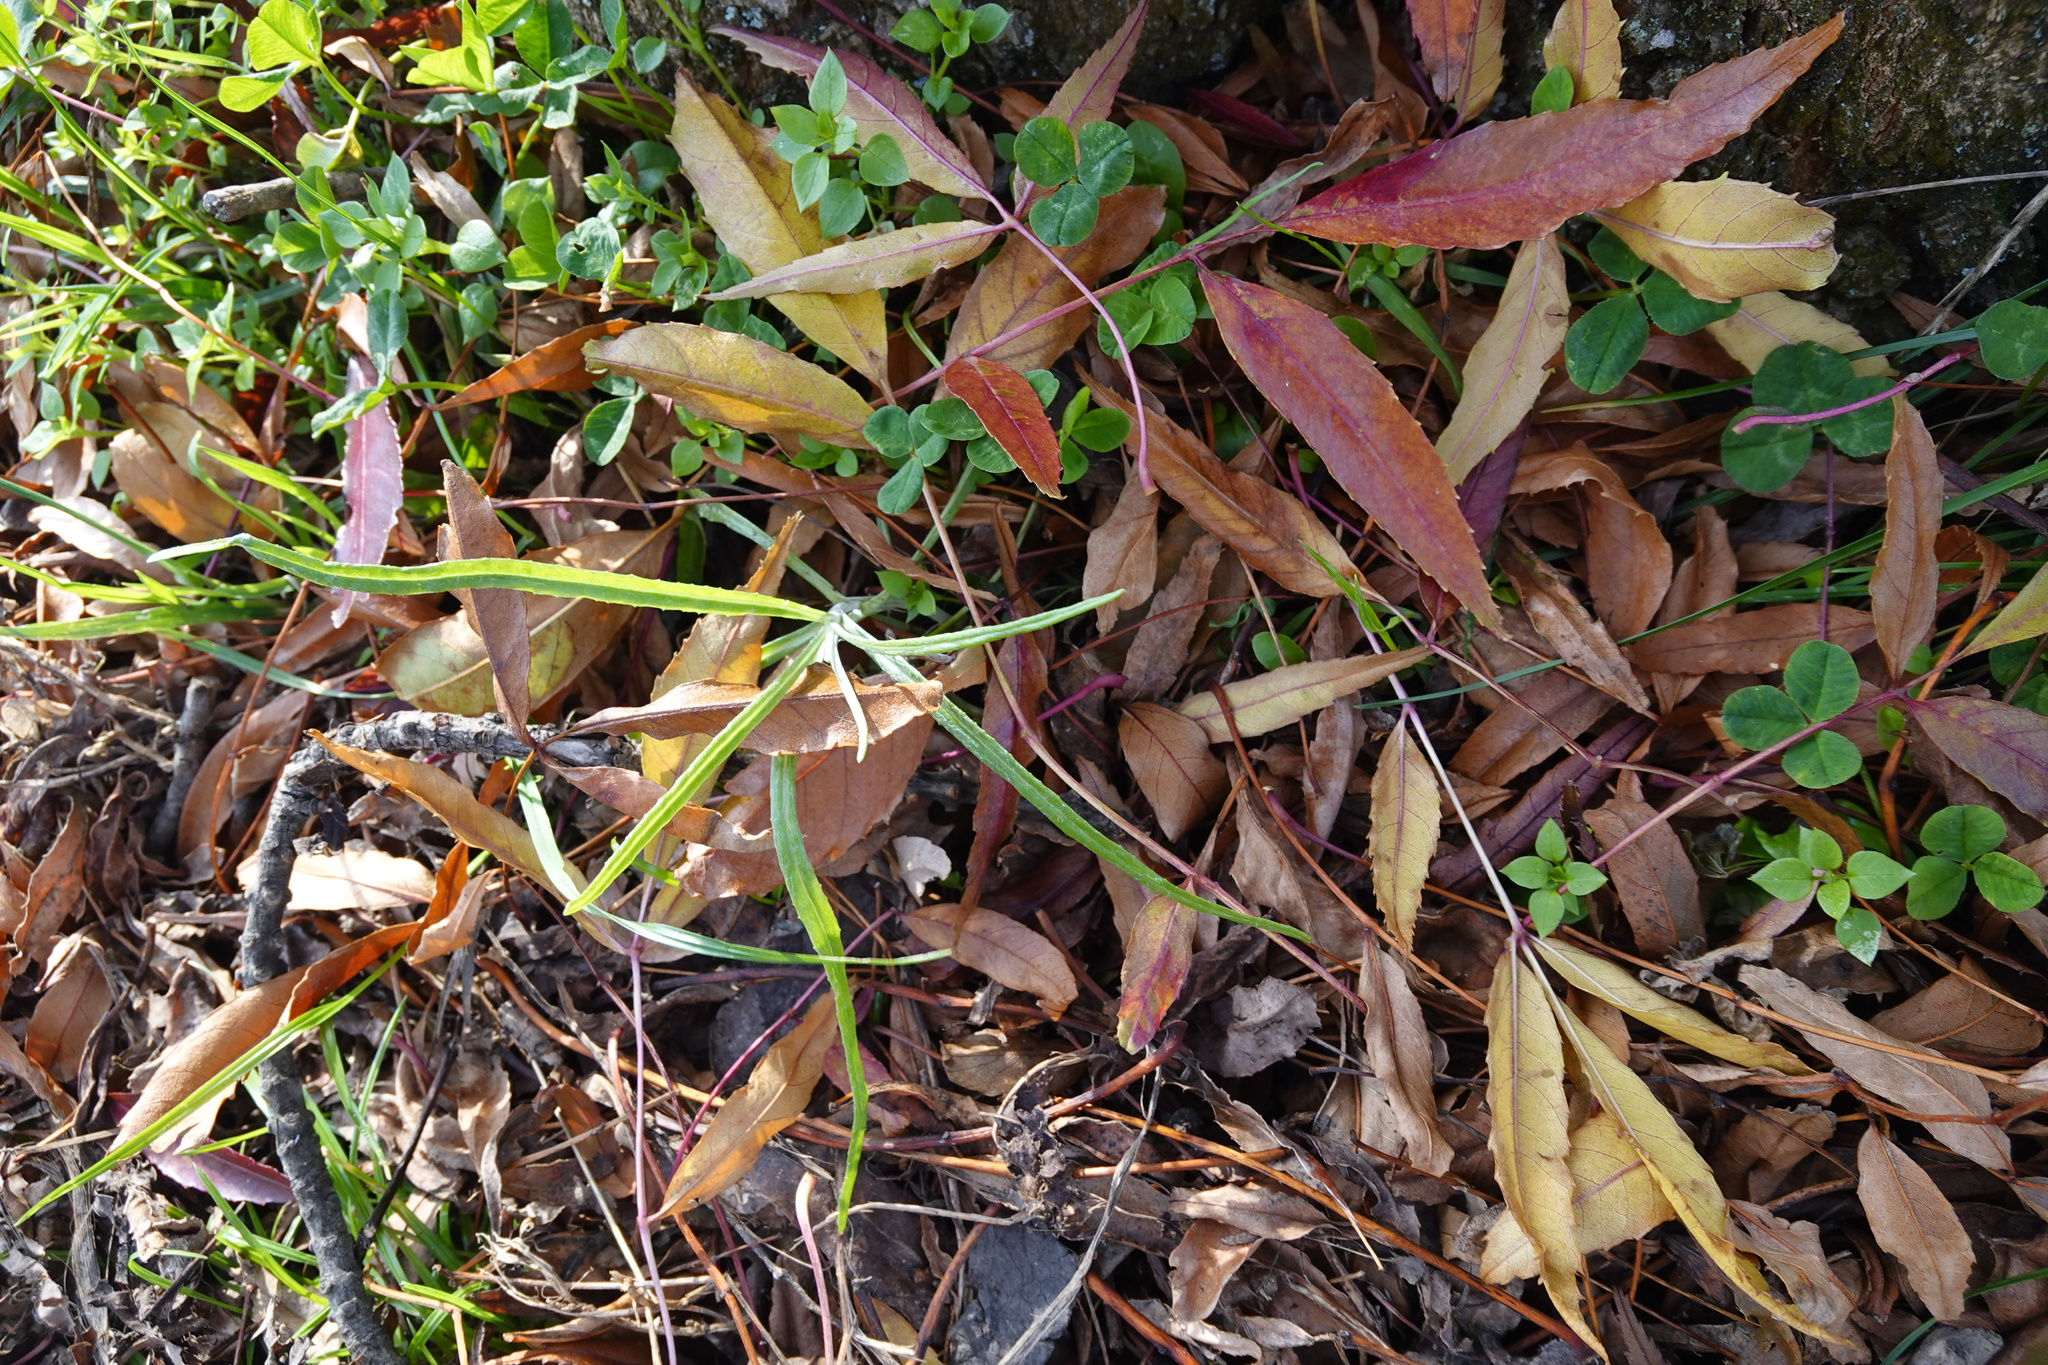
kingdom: Plantae
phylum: Tracheophyta
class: Magnoliopsida
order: Asterales
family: Asteraceae
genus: Senecio
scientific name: Senecio quadridentatus
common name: Cotton fireweed
